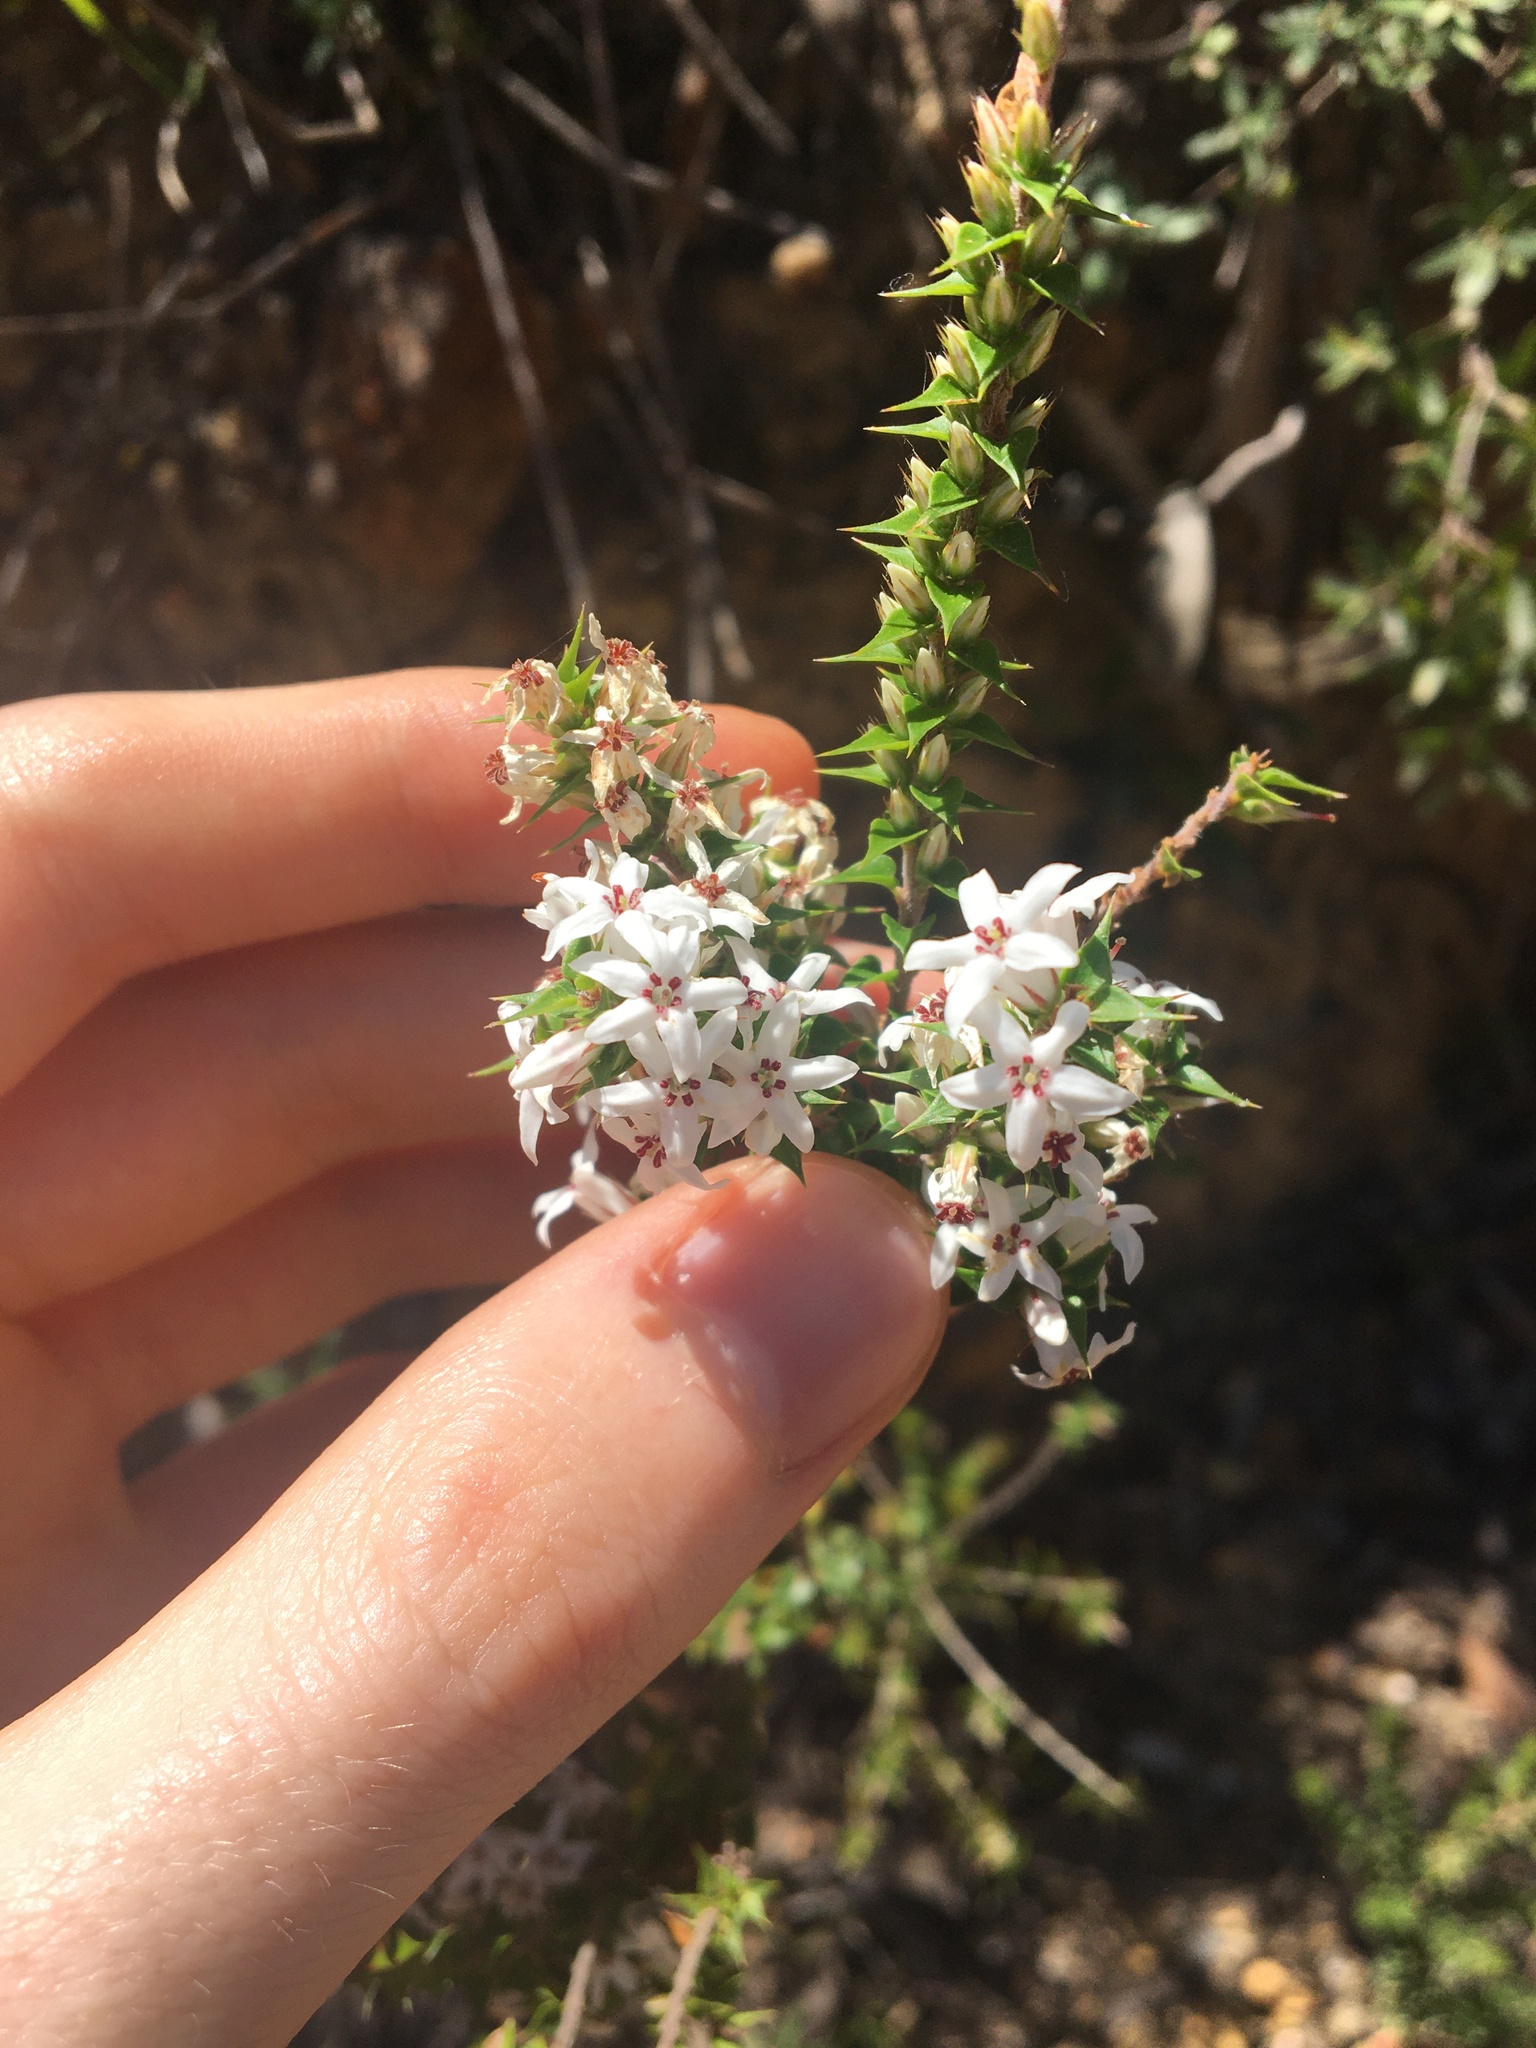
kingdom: Plantae
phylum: Tracheophyta
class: Magnoliopsida
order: Ericales
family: Ericaceae
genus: Epacris
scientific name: Epacris pulchella
